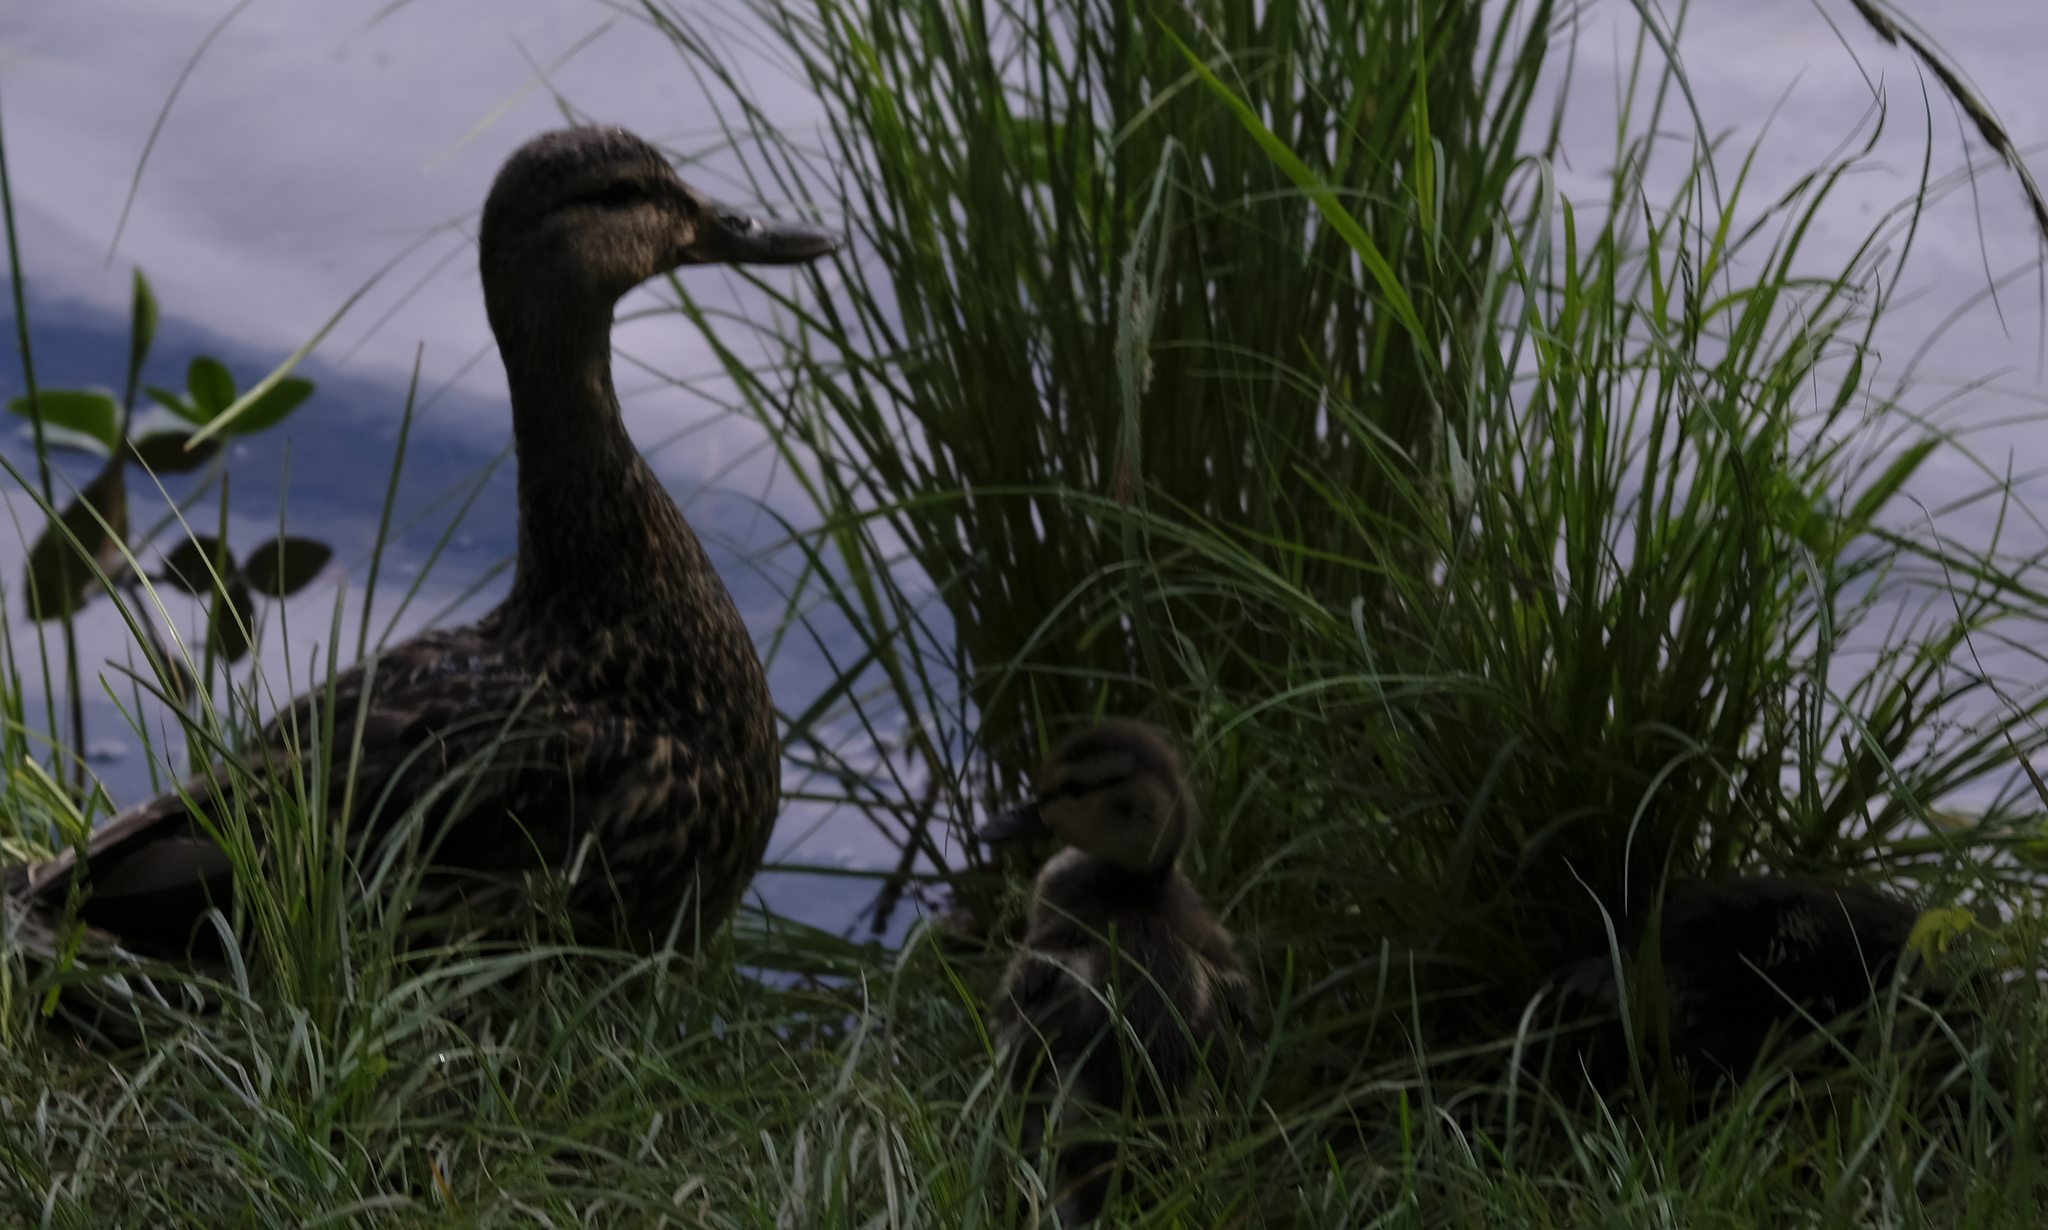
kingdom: Animalia
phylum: Chordata
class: Aves
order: Anseriformes
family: Anatidae
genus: Anas
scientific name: Anas platyrhynchos
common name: Mallard
